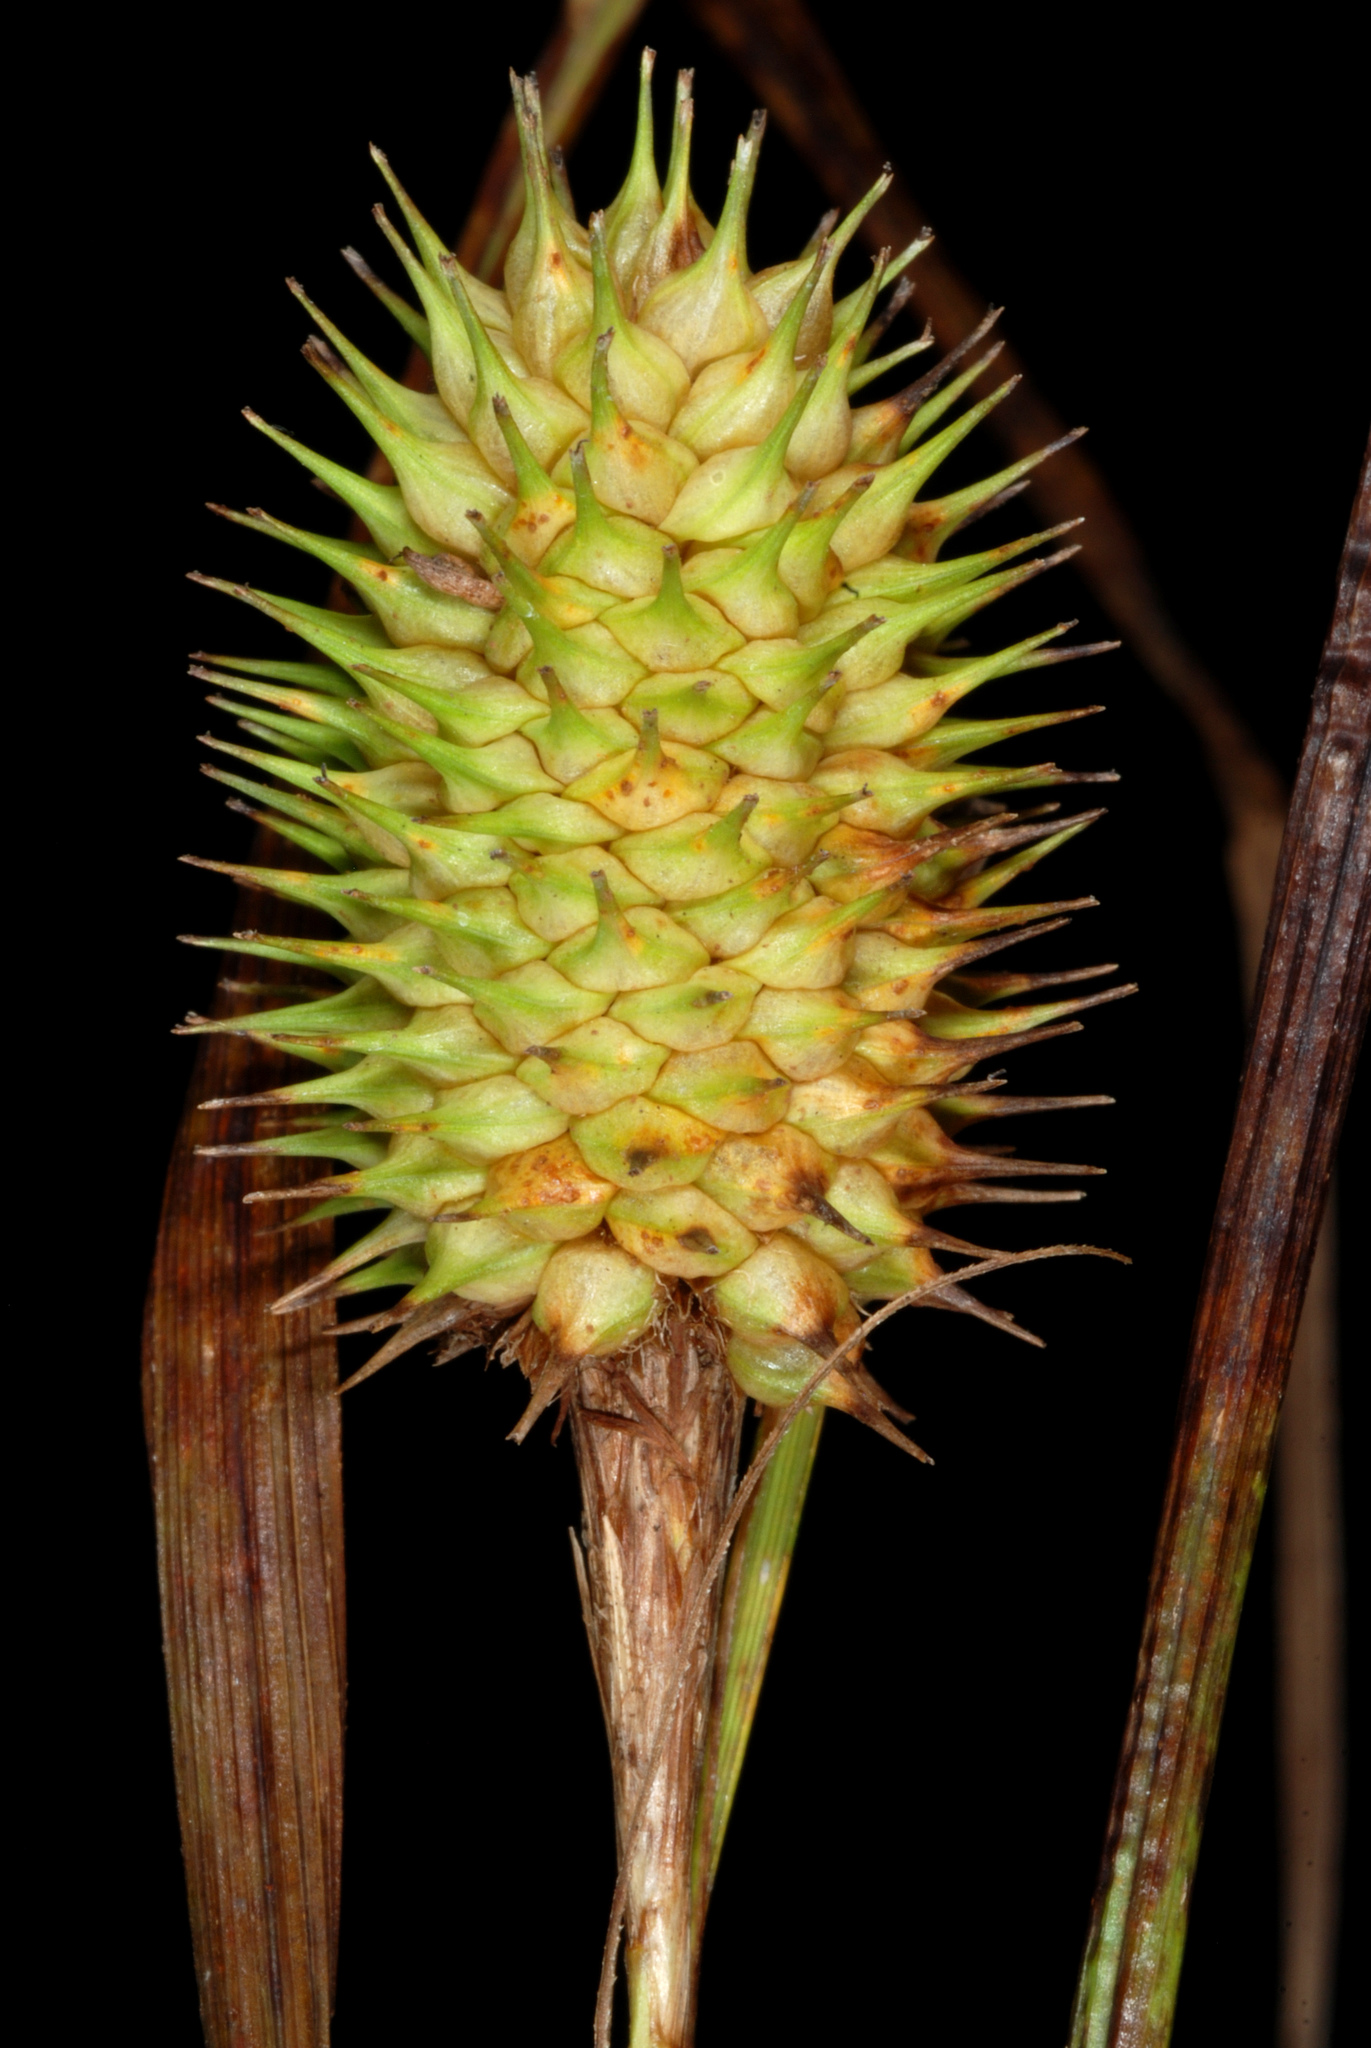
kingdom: Plantae
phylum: Tracheophyta
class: Liliopsida
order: Poales
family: Cyperaceae
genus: Carex
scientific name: Carex squarrosa
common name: Narrow-leaved cattail sedge
